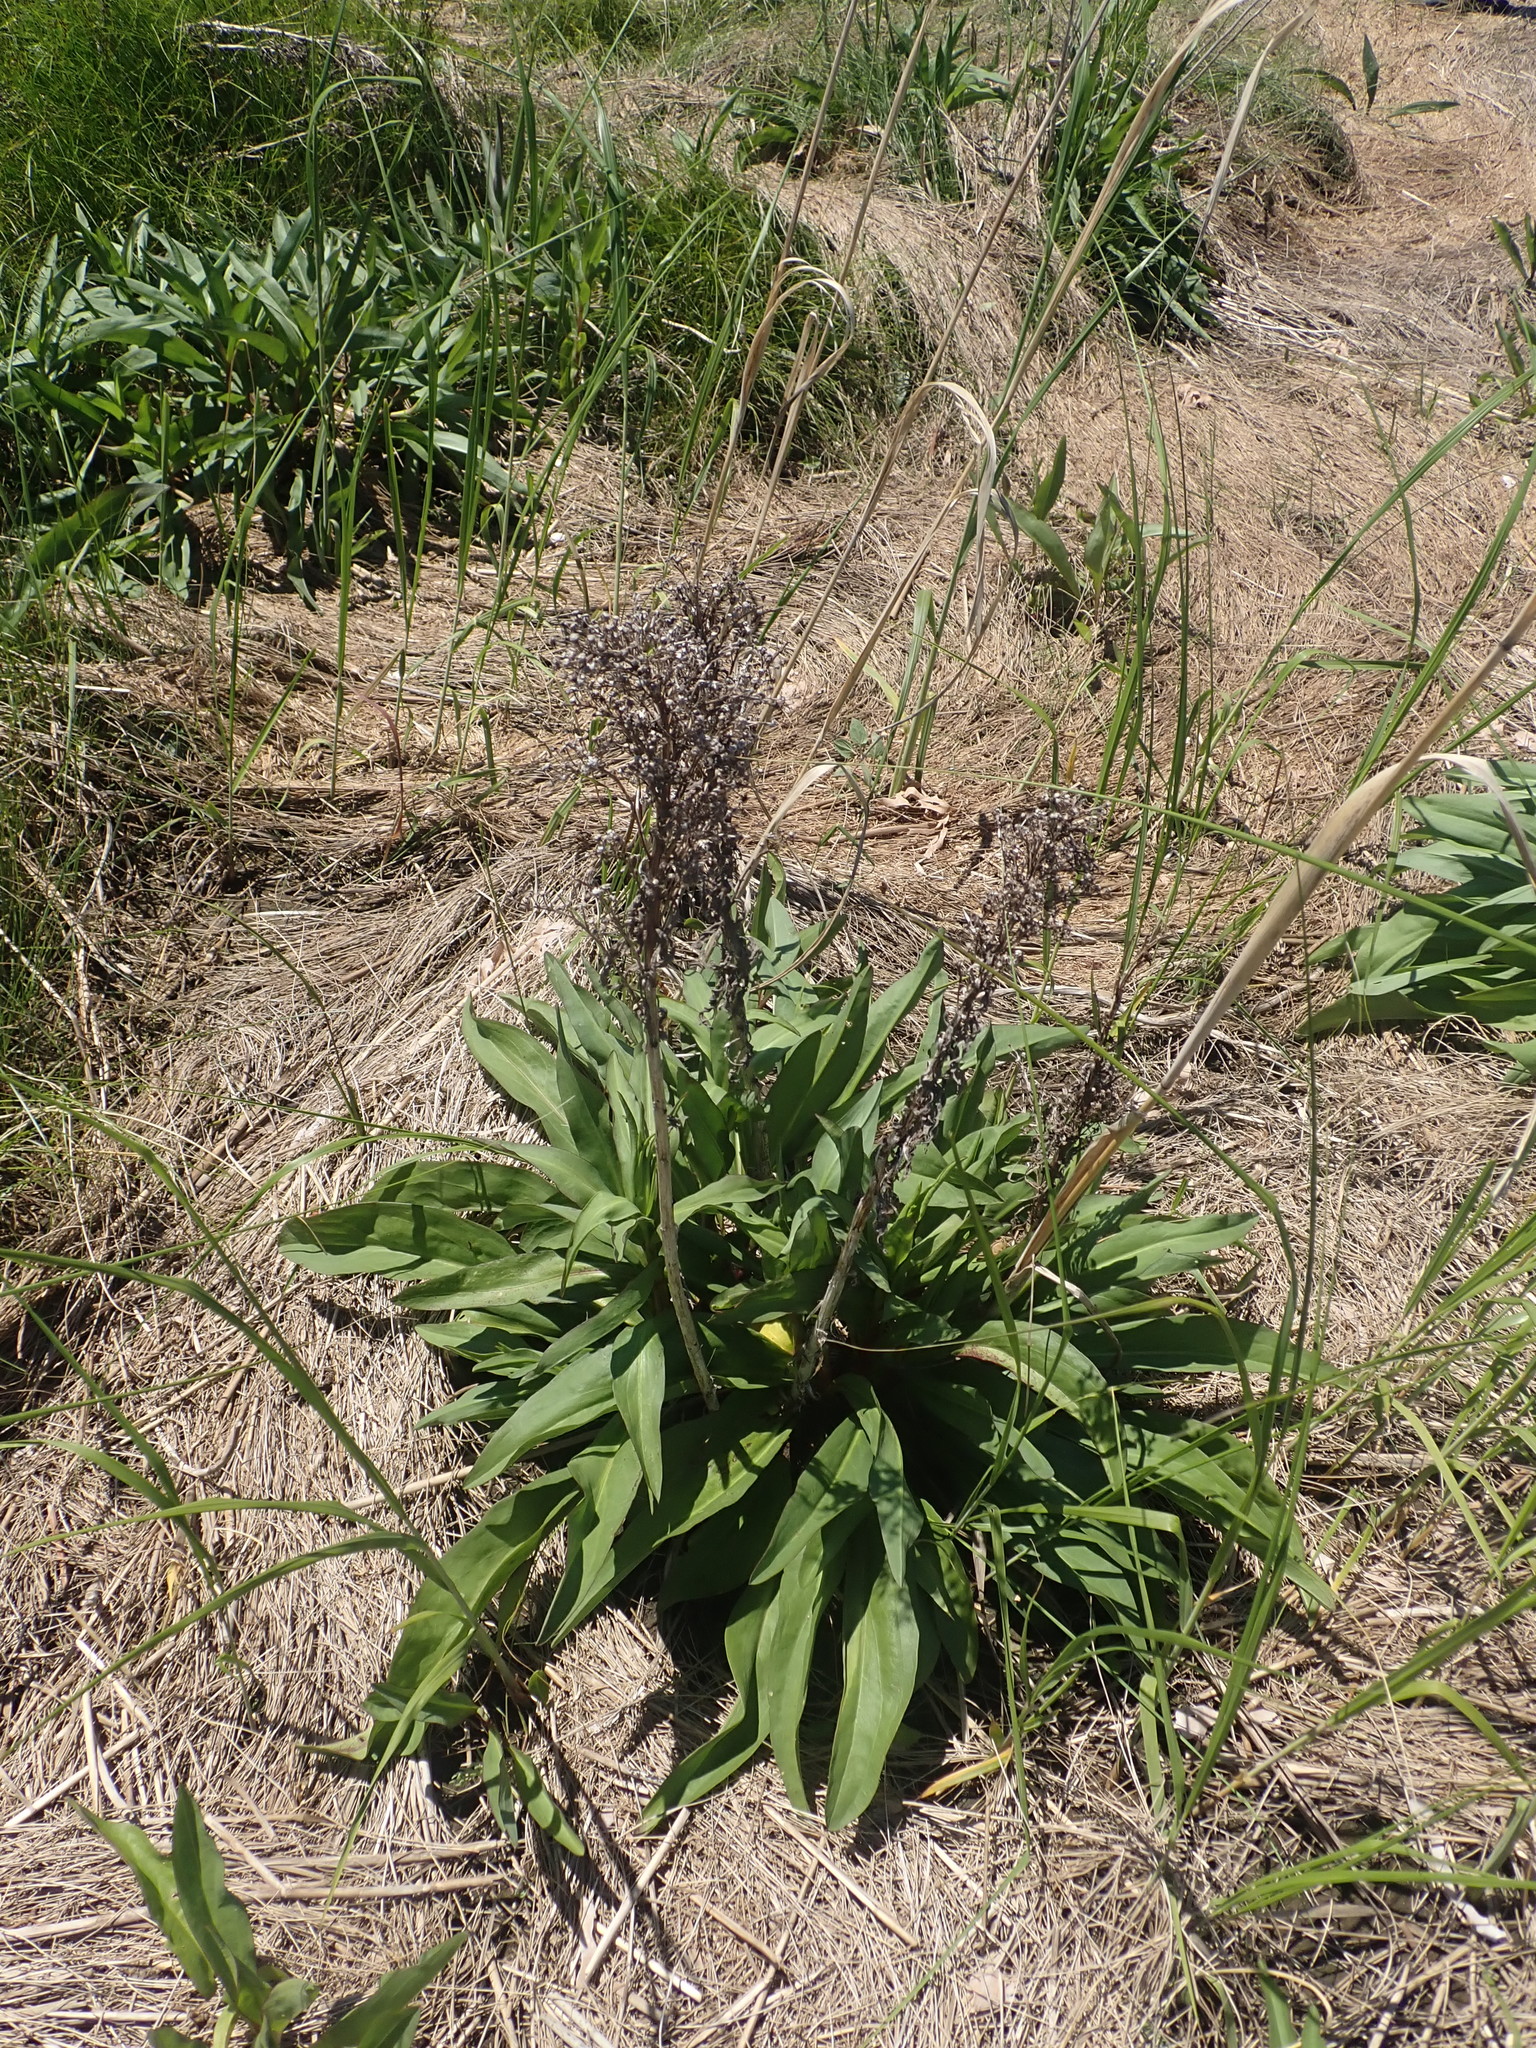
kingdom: Plantae
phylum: Tracheophyta
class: Magnoliopsida
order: Asterales
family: Asteraceae
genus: Solidago
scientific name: Solidago sempervirens
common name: Salt-marsh goldenrod
